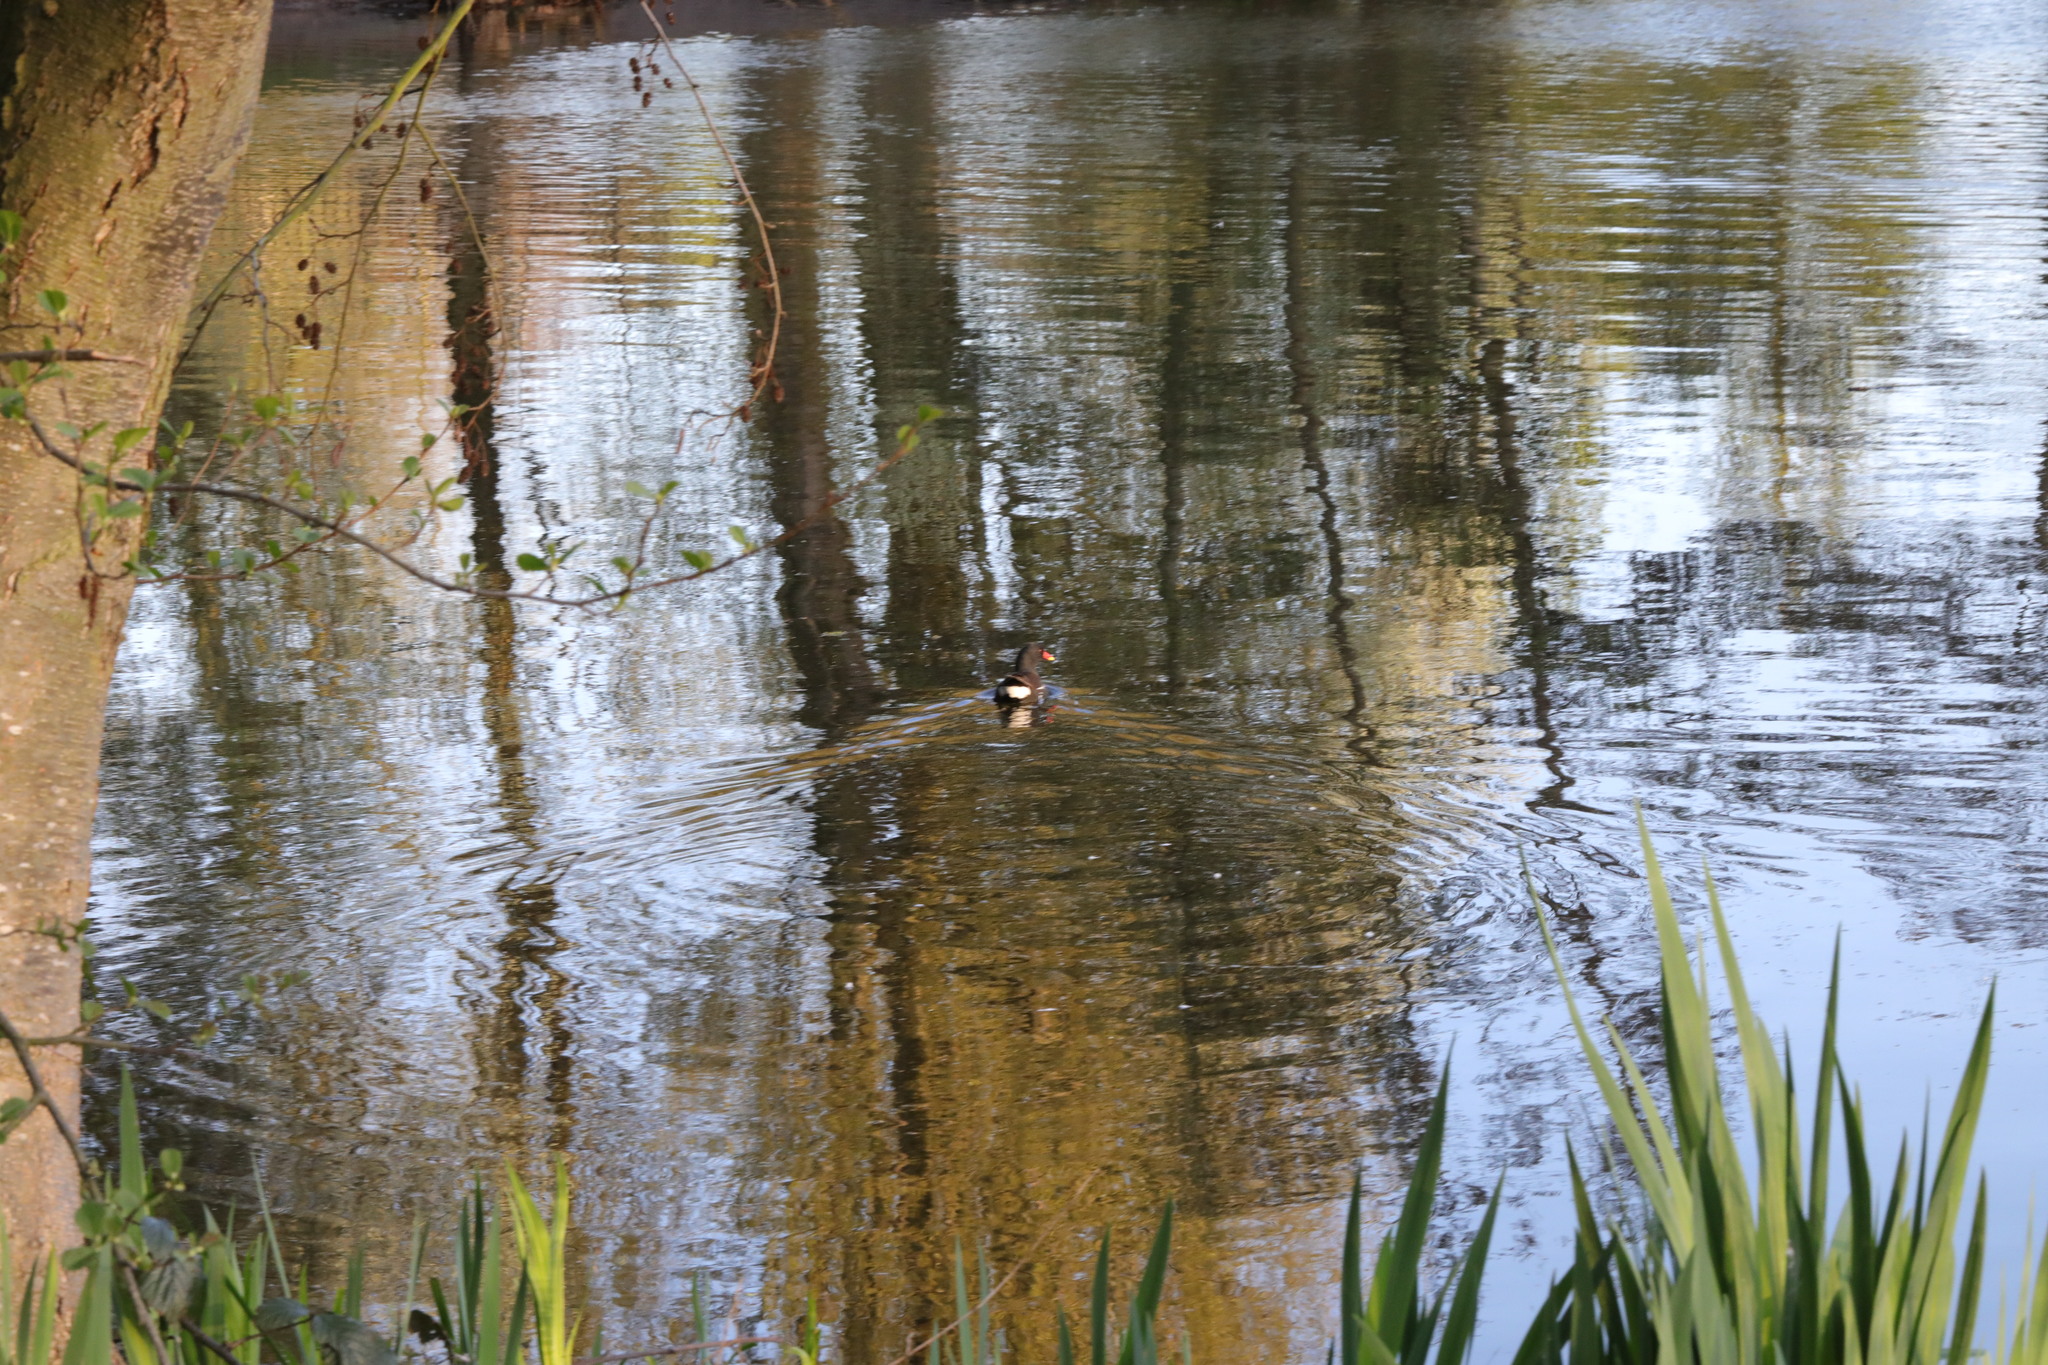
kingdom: Animalia
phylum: Chordata
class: Aves
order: Gruiformes
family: Rallidae
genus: Gallinula
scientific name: Gallinula chloropus
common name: Common moorhen
